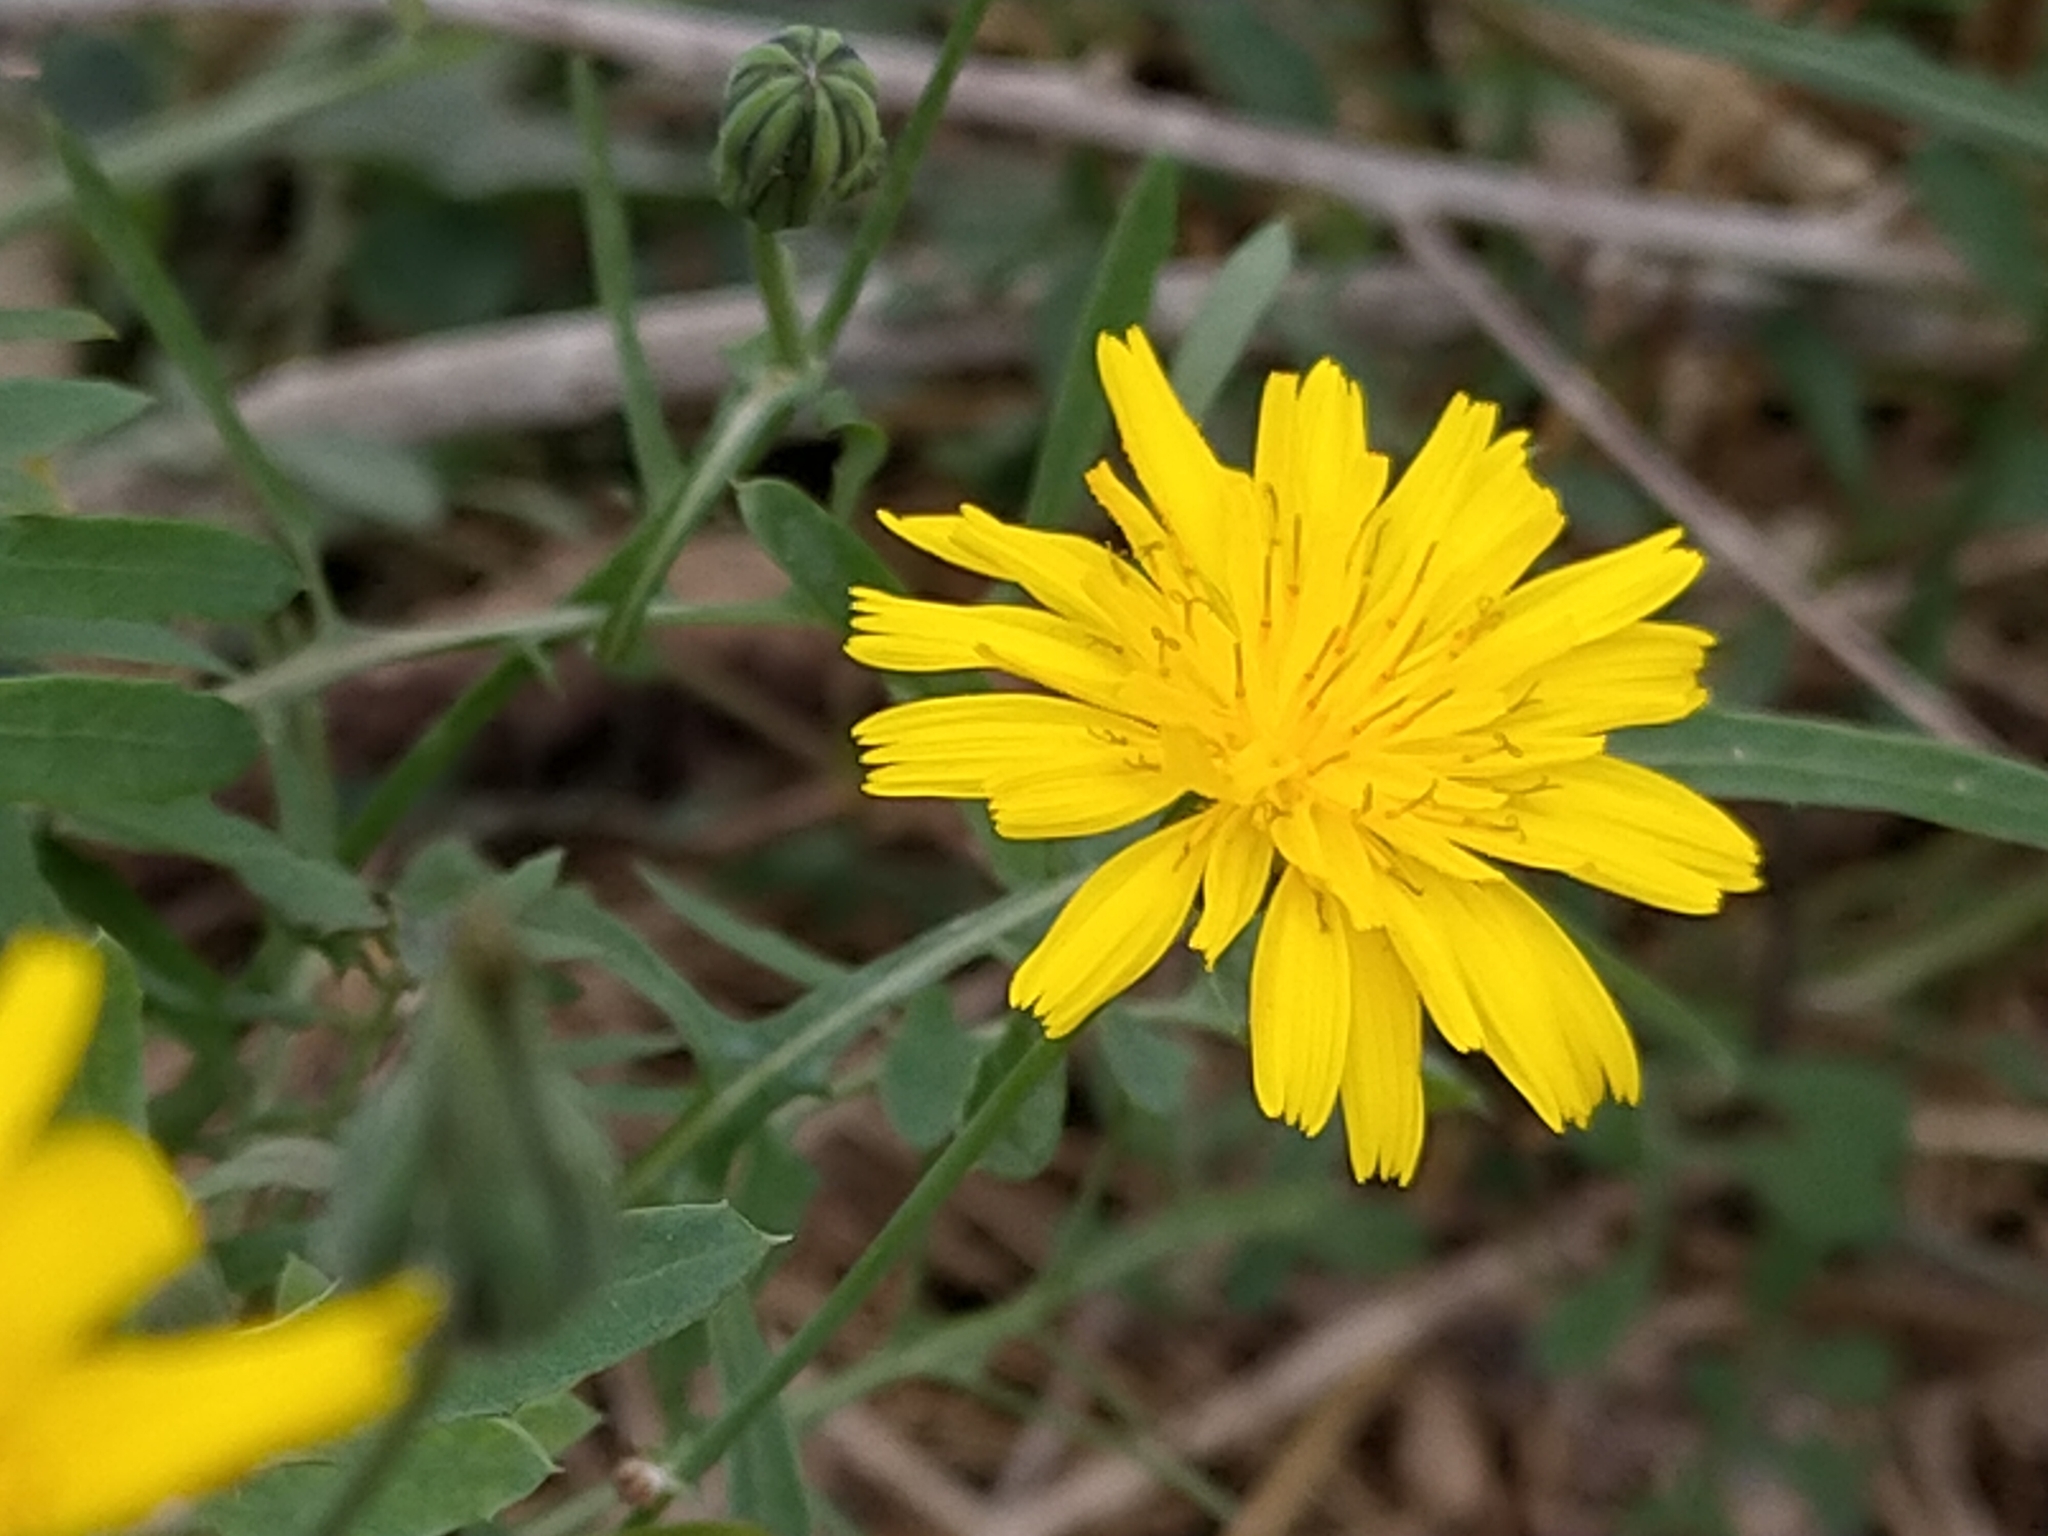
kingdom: Plantae
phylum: Tracheophyta
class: Magnoliopsida
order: Asterales
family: Asteraceae
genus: Sonchus
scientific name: Sonchus tenerrimus
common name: Clammy sowthistle
